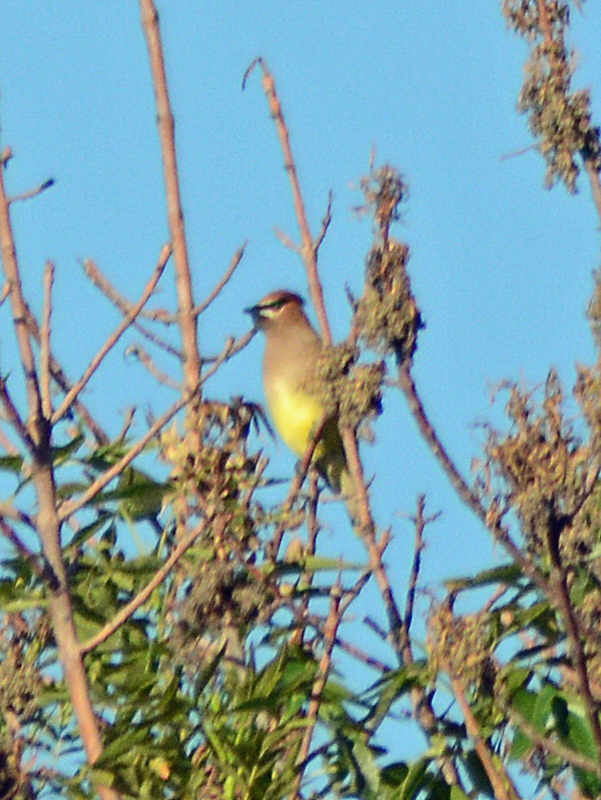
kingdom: Animalia
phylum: Chordata
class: Aves
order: Passeriformes
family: Bombycillidae
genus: Bombycilla
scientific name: Bombycilla cedrorum
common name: Cedar waxwing
